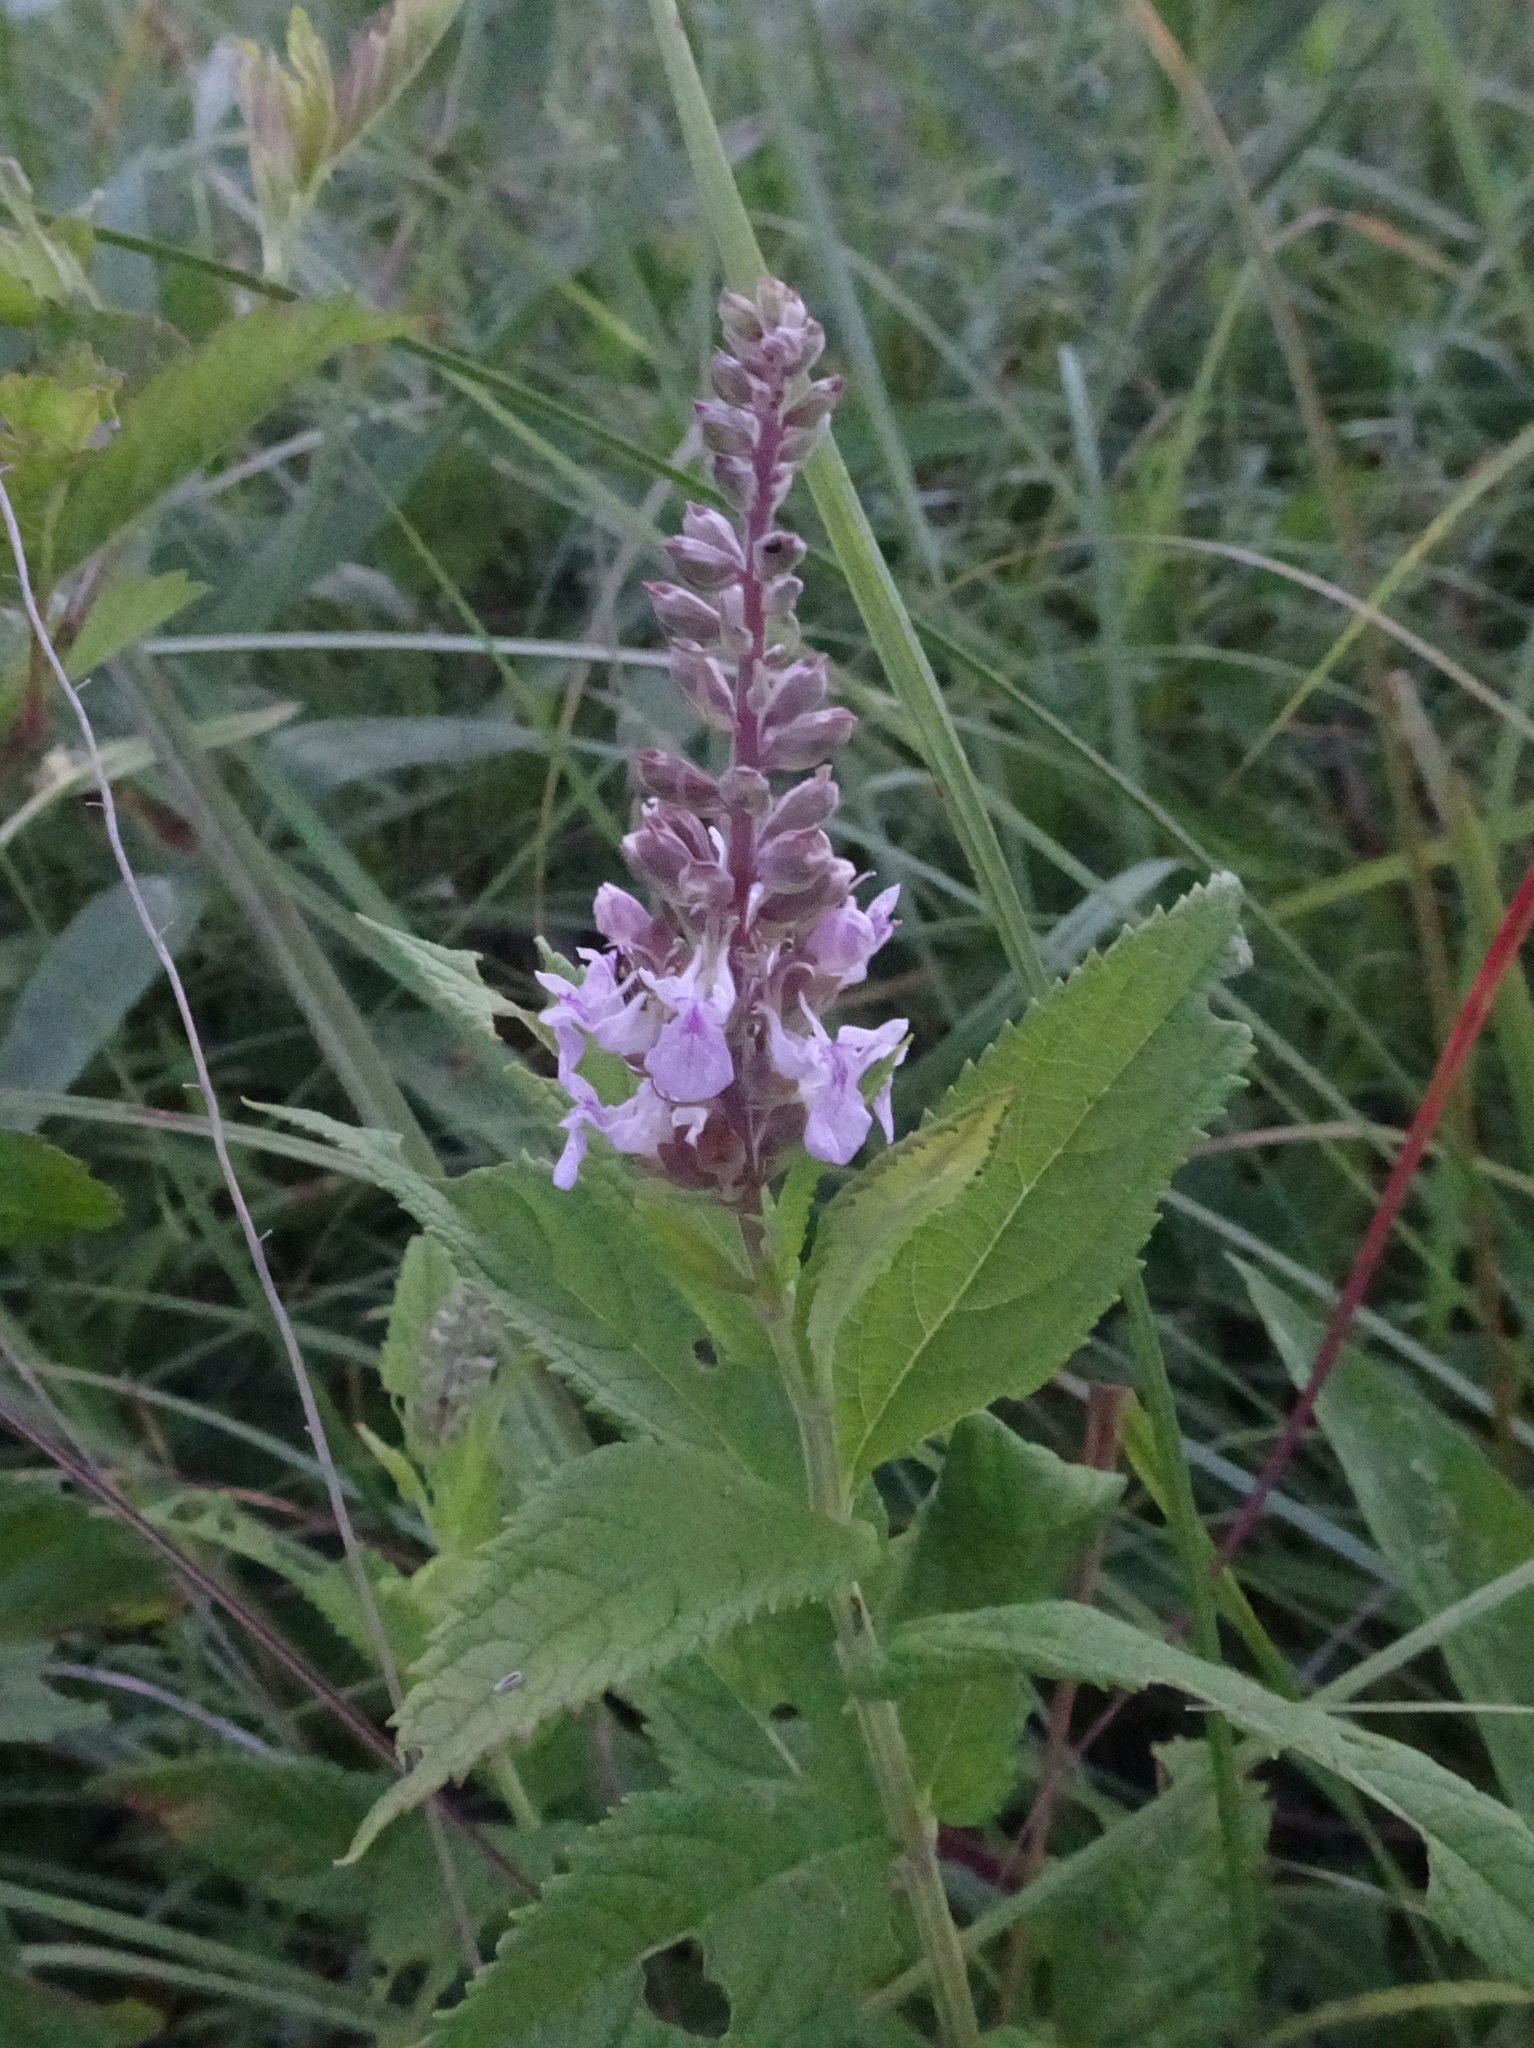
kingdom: Plantae
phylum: Tracheophyta
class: Magnoliopsida
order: Lamiales
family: Lamiaceae
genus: Teucrium
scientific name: Teucrium canadense
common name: American germander
